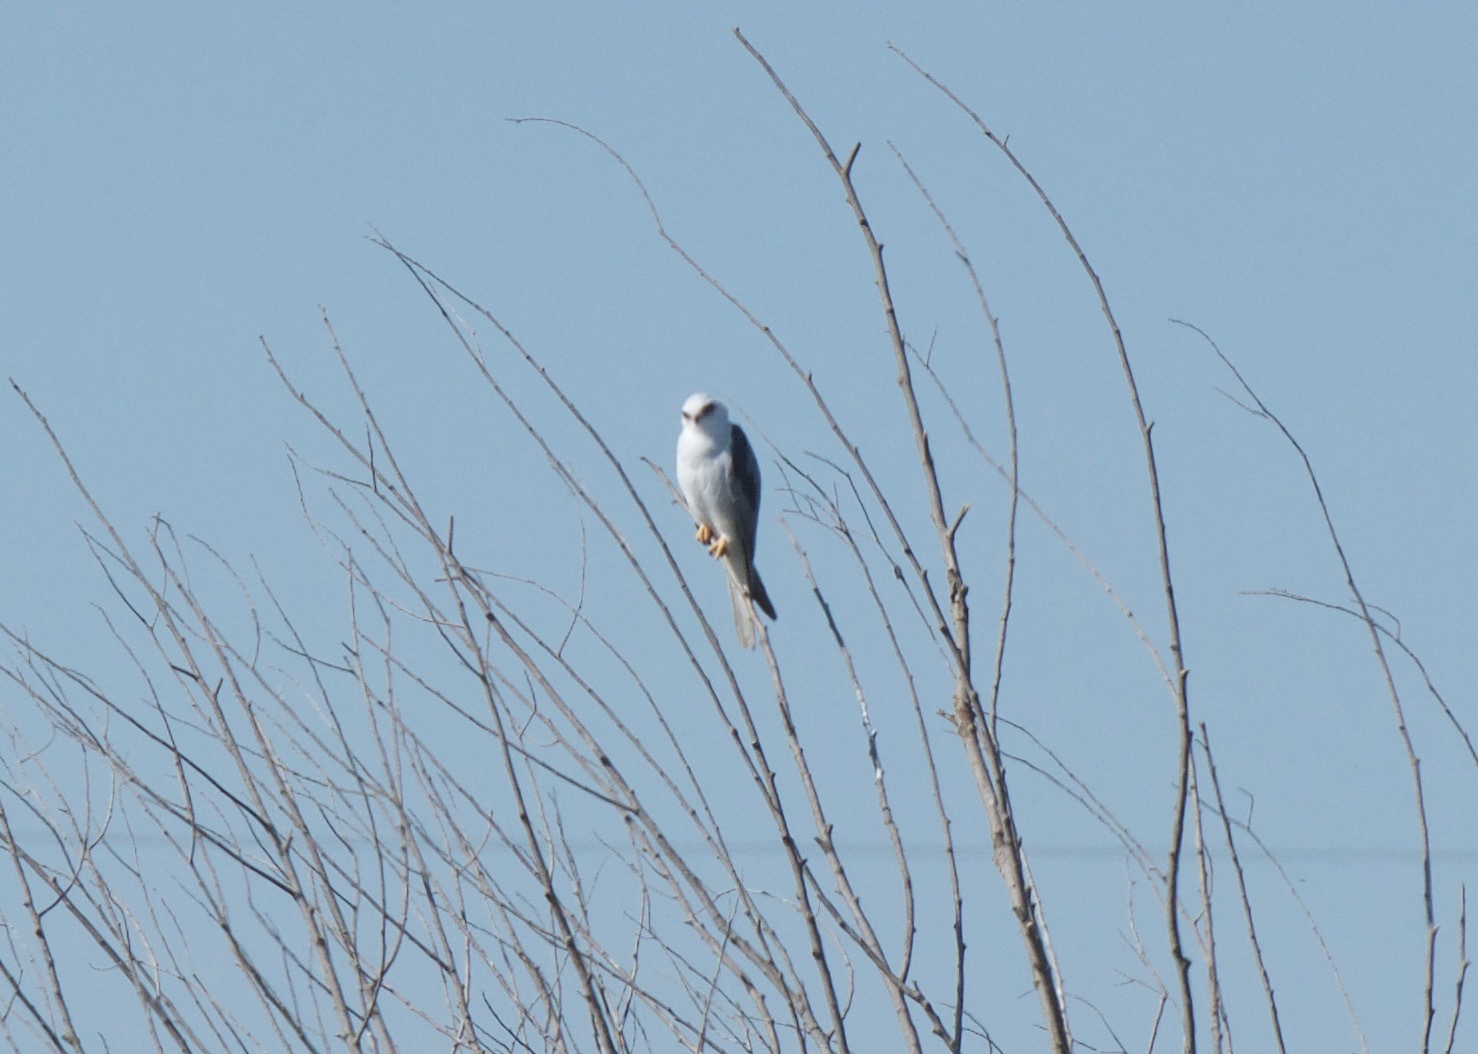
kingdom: Animalia
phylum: Chordata
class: Aves
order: Accipitriformes
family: Accipitridae
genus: Elanus
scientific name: Elanus leucurus
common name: White-tailed kite
